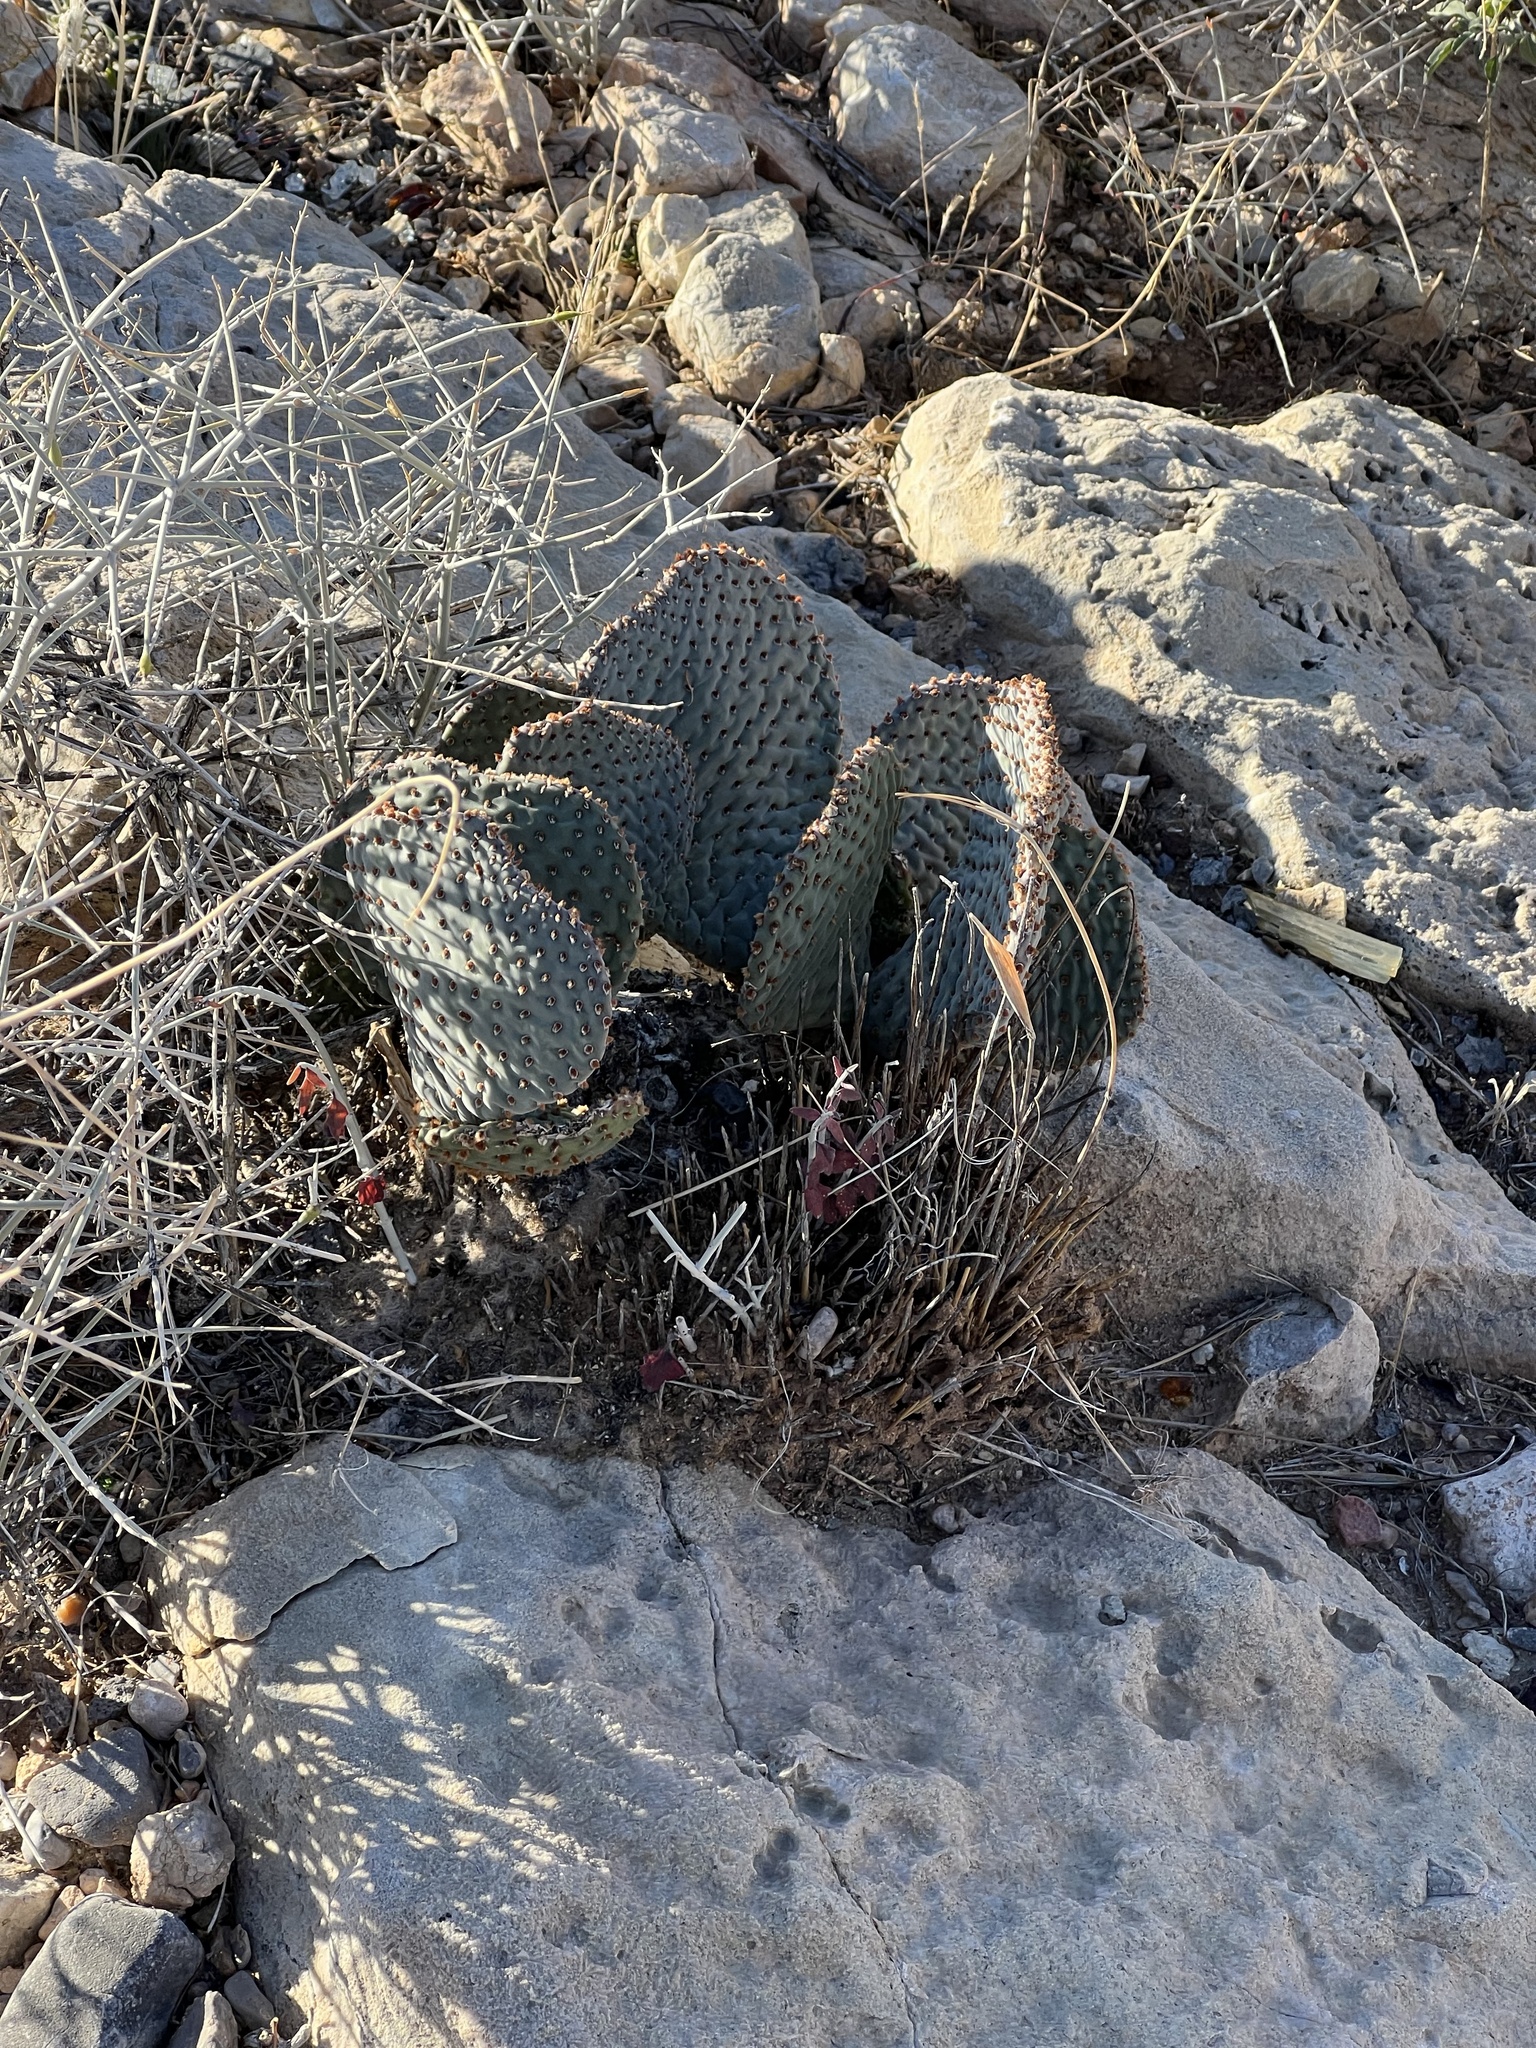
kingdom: Plantae
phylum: Tracheophyta
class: Magnoliopsida
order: Caryophyllales
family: Cactaceae
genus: Opuntia
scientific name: Opuntia basilaris
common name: Beavertail prickly-pear
